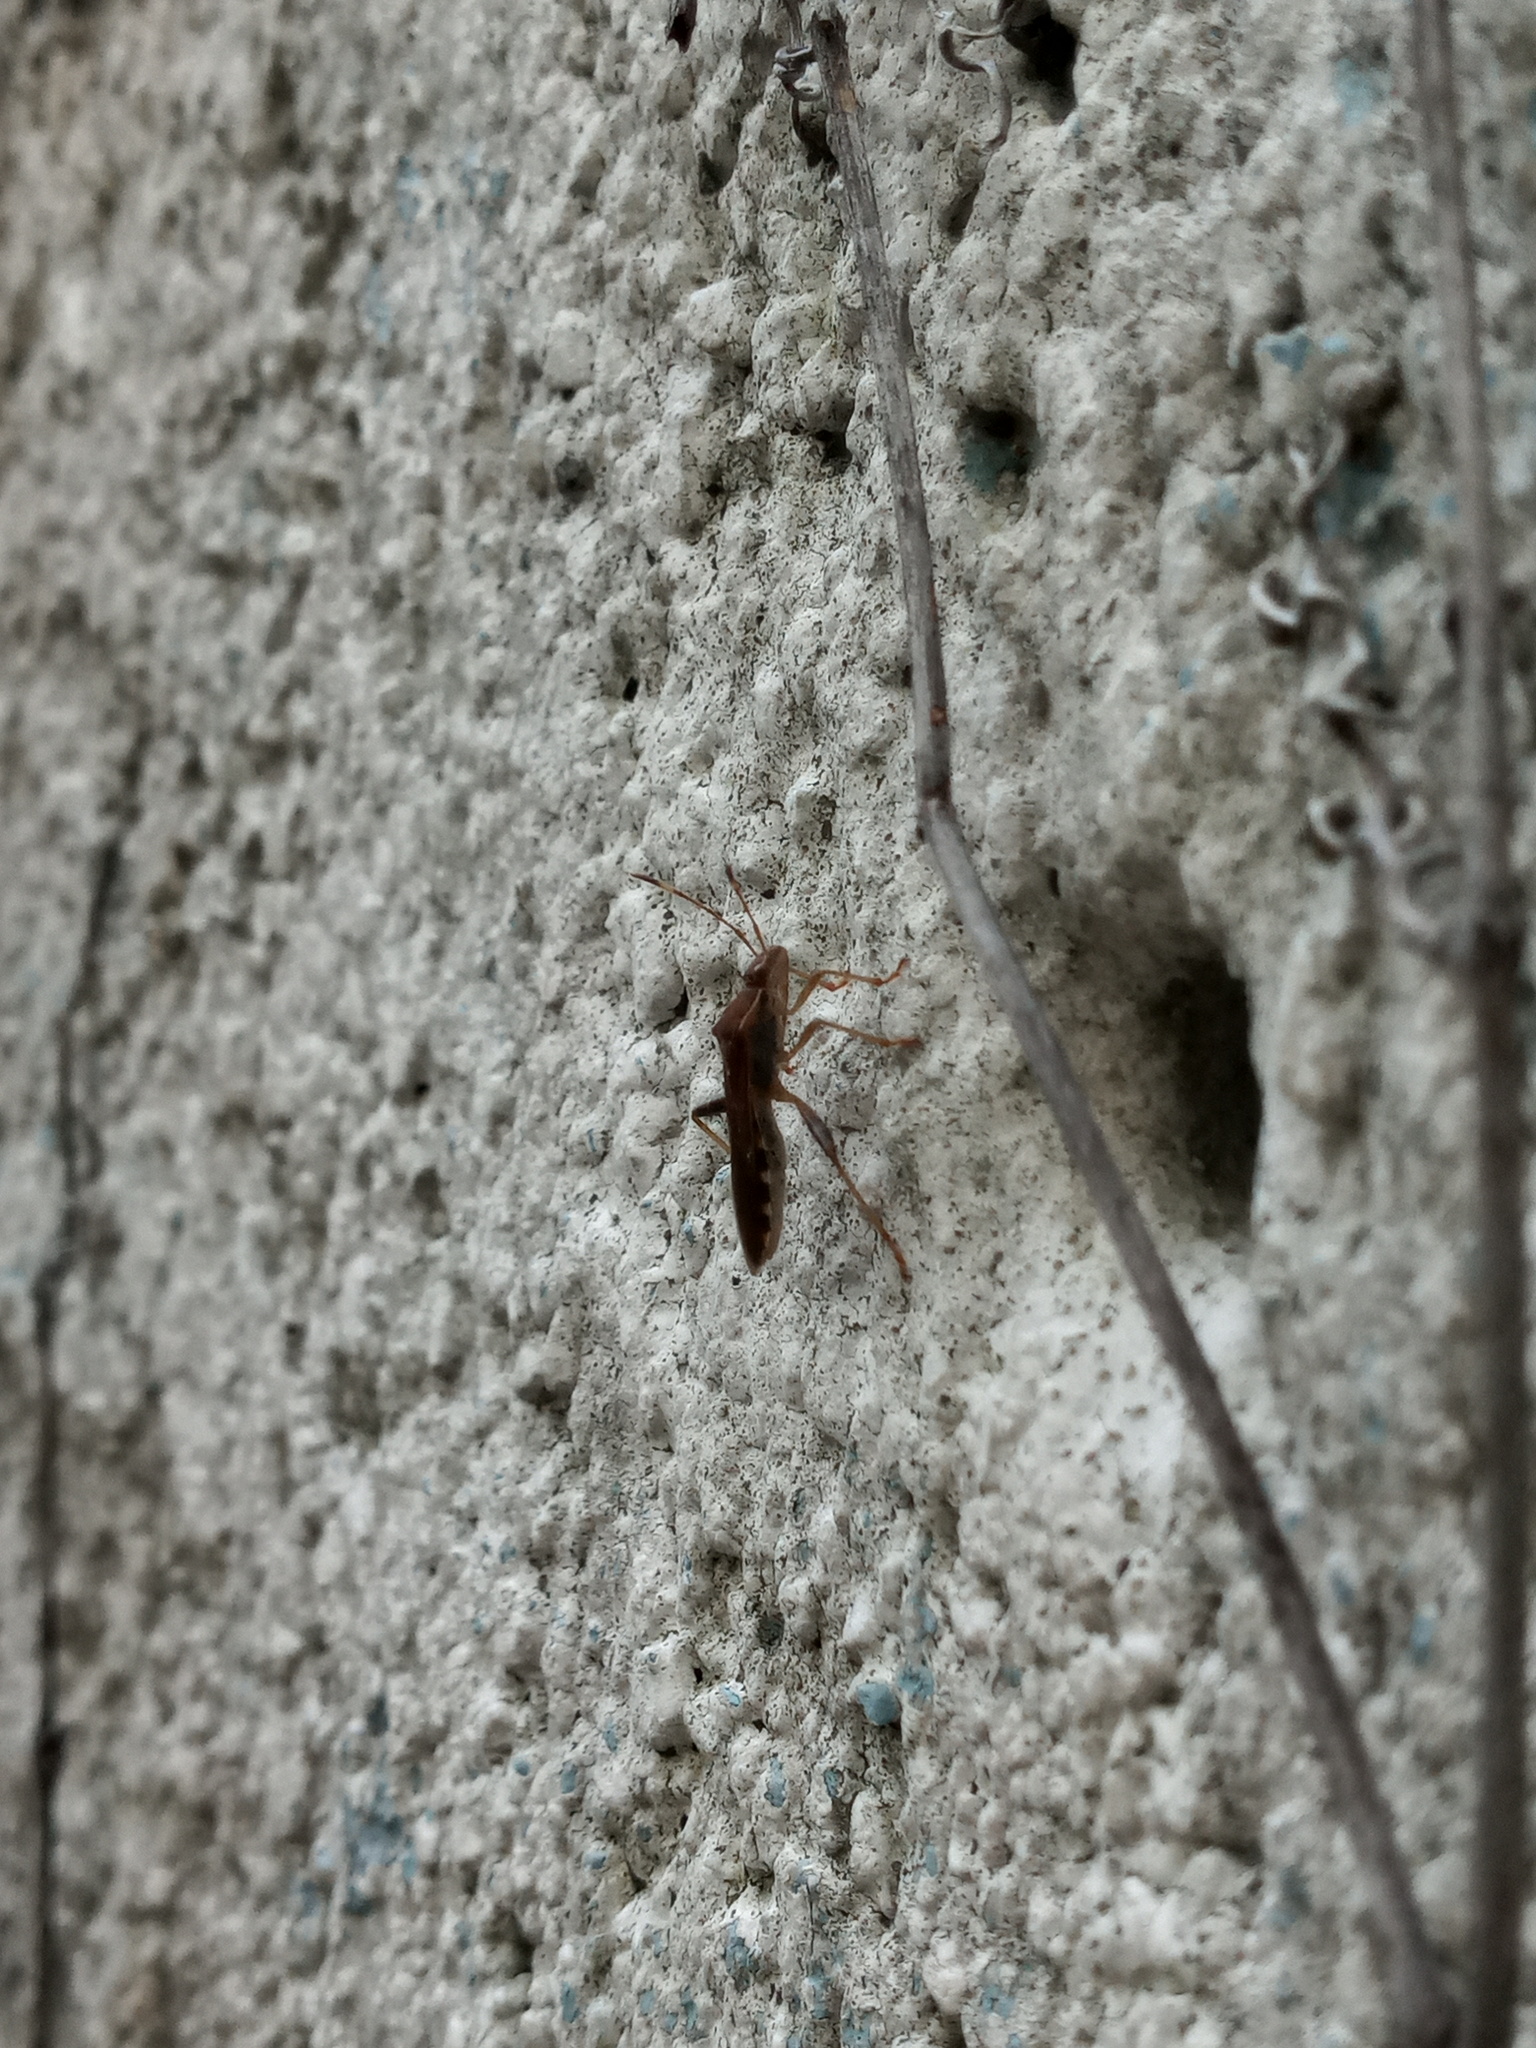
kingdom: Animalia
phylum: Arthropoda
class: Insecta
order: Hemiptera
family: Alydidae
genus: Burtinus
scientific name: Burtinus notatipennis
